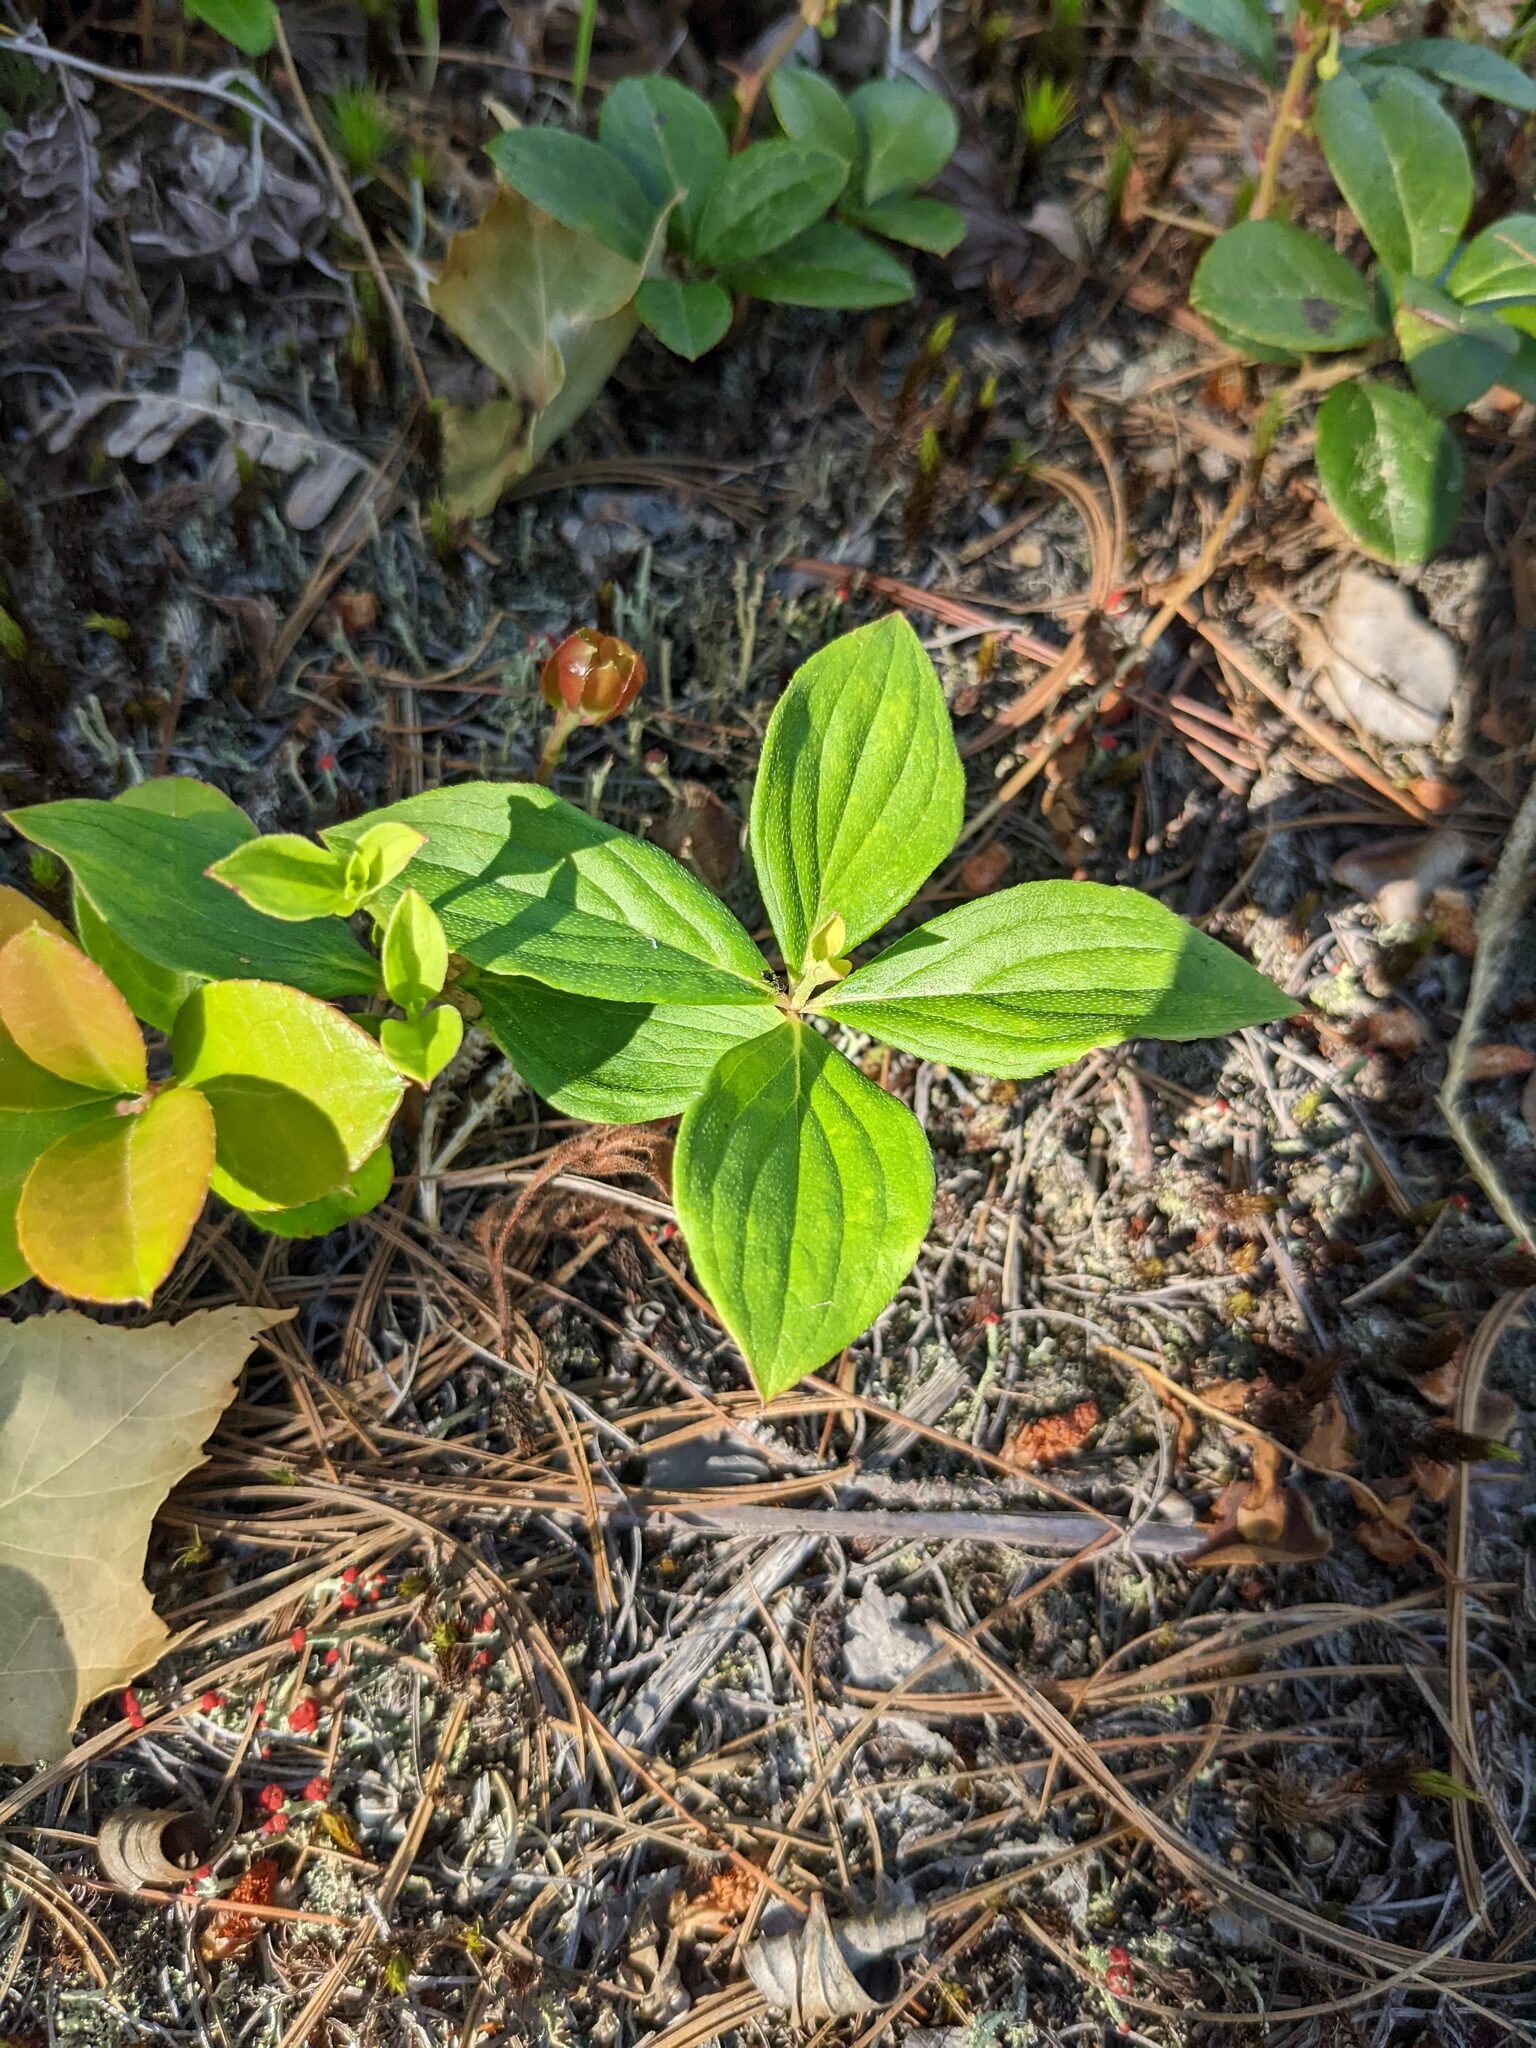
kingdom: Plantae
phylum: Tracheophyta
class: Magnoliopsida
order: Cornales
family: Cornaceae
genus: Cornus
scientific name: Cornus canadensis
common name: Creeping dogwood
